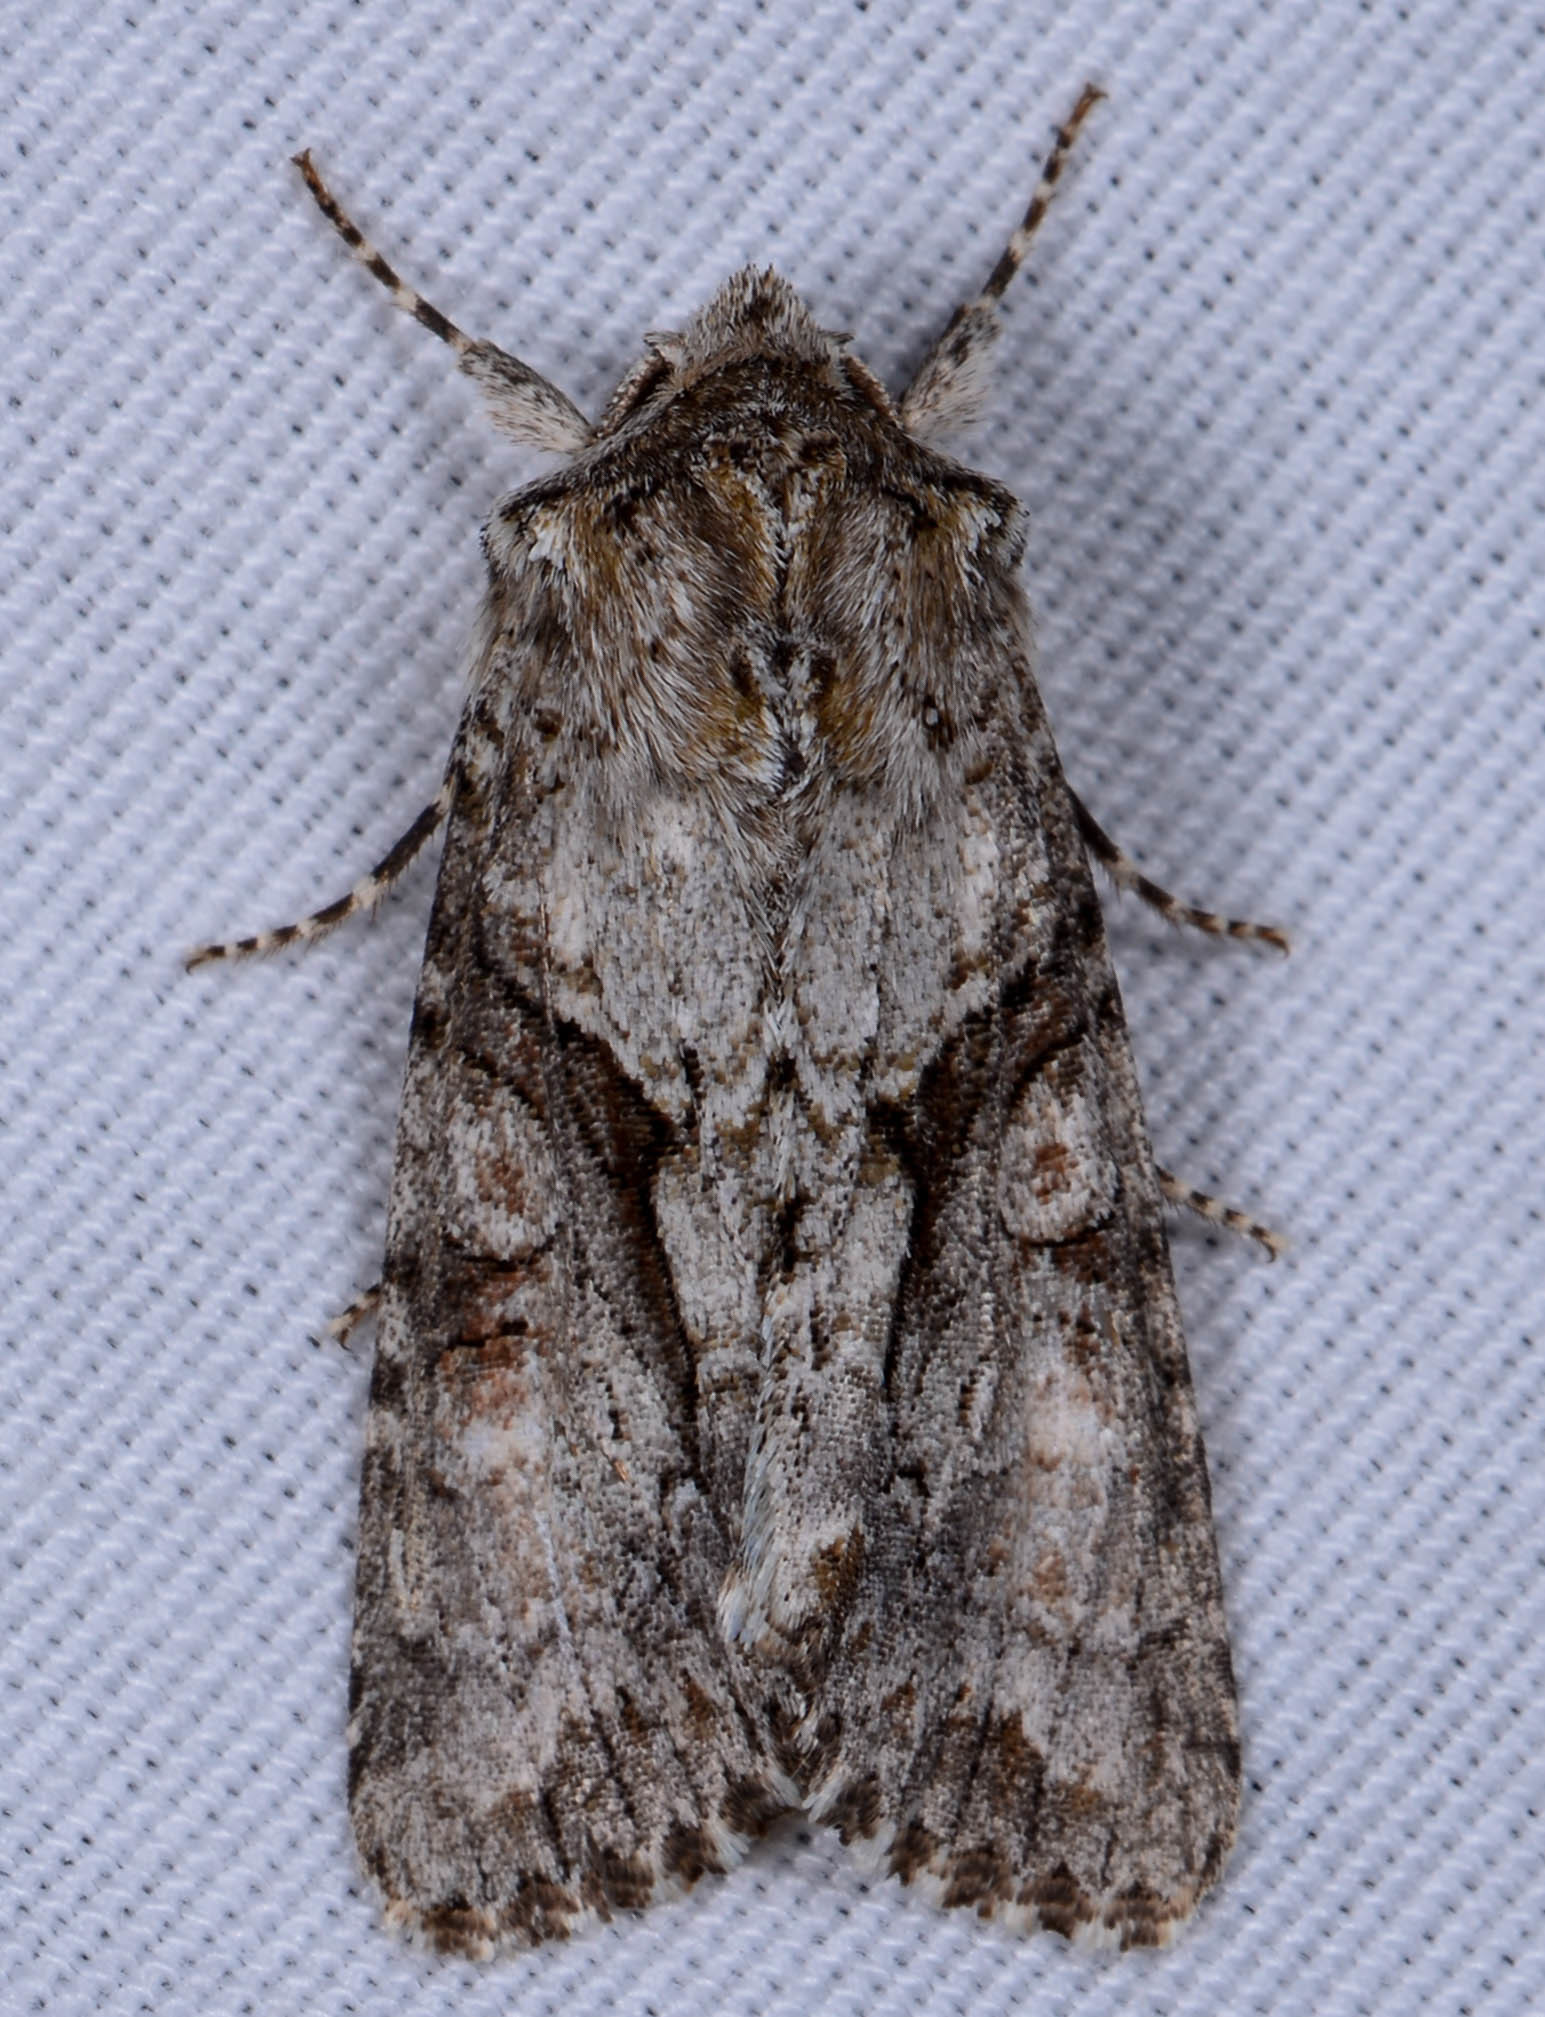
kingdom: Animalia
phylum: Arthropoda
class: Insecta
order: Lepidoptera
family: Noctuidae
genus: Achatia
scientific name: Achatia distincta
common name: Distinct quaker
